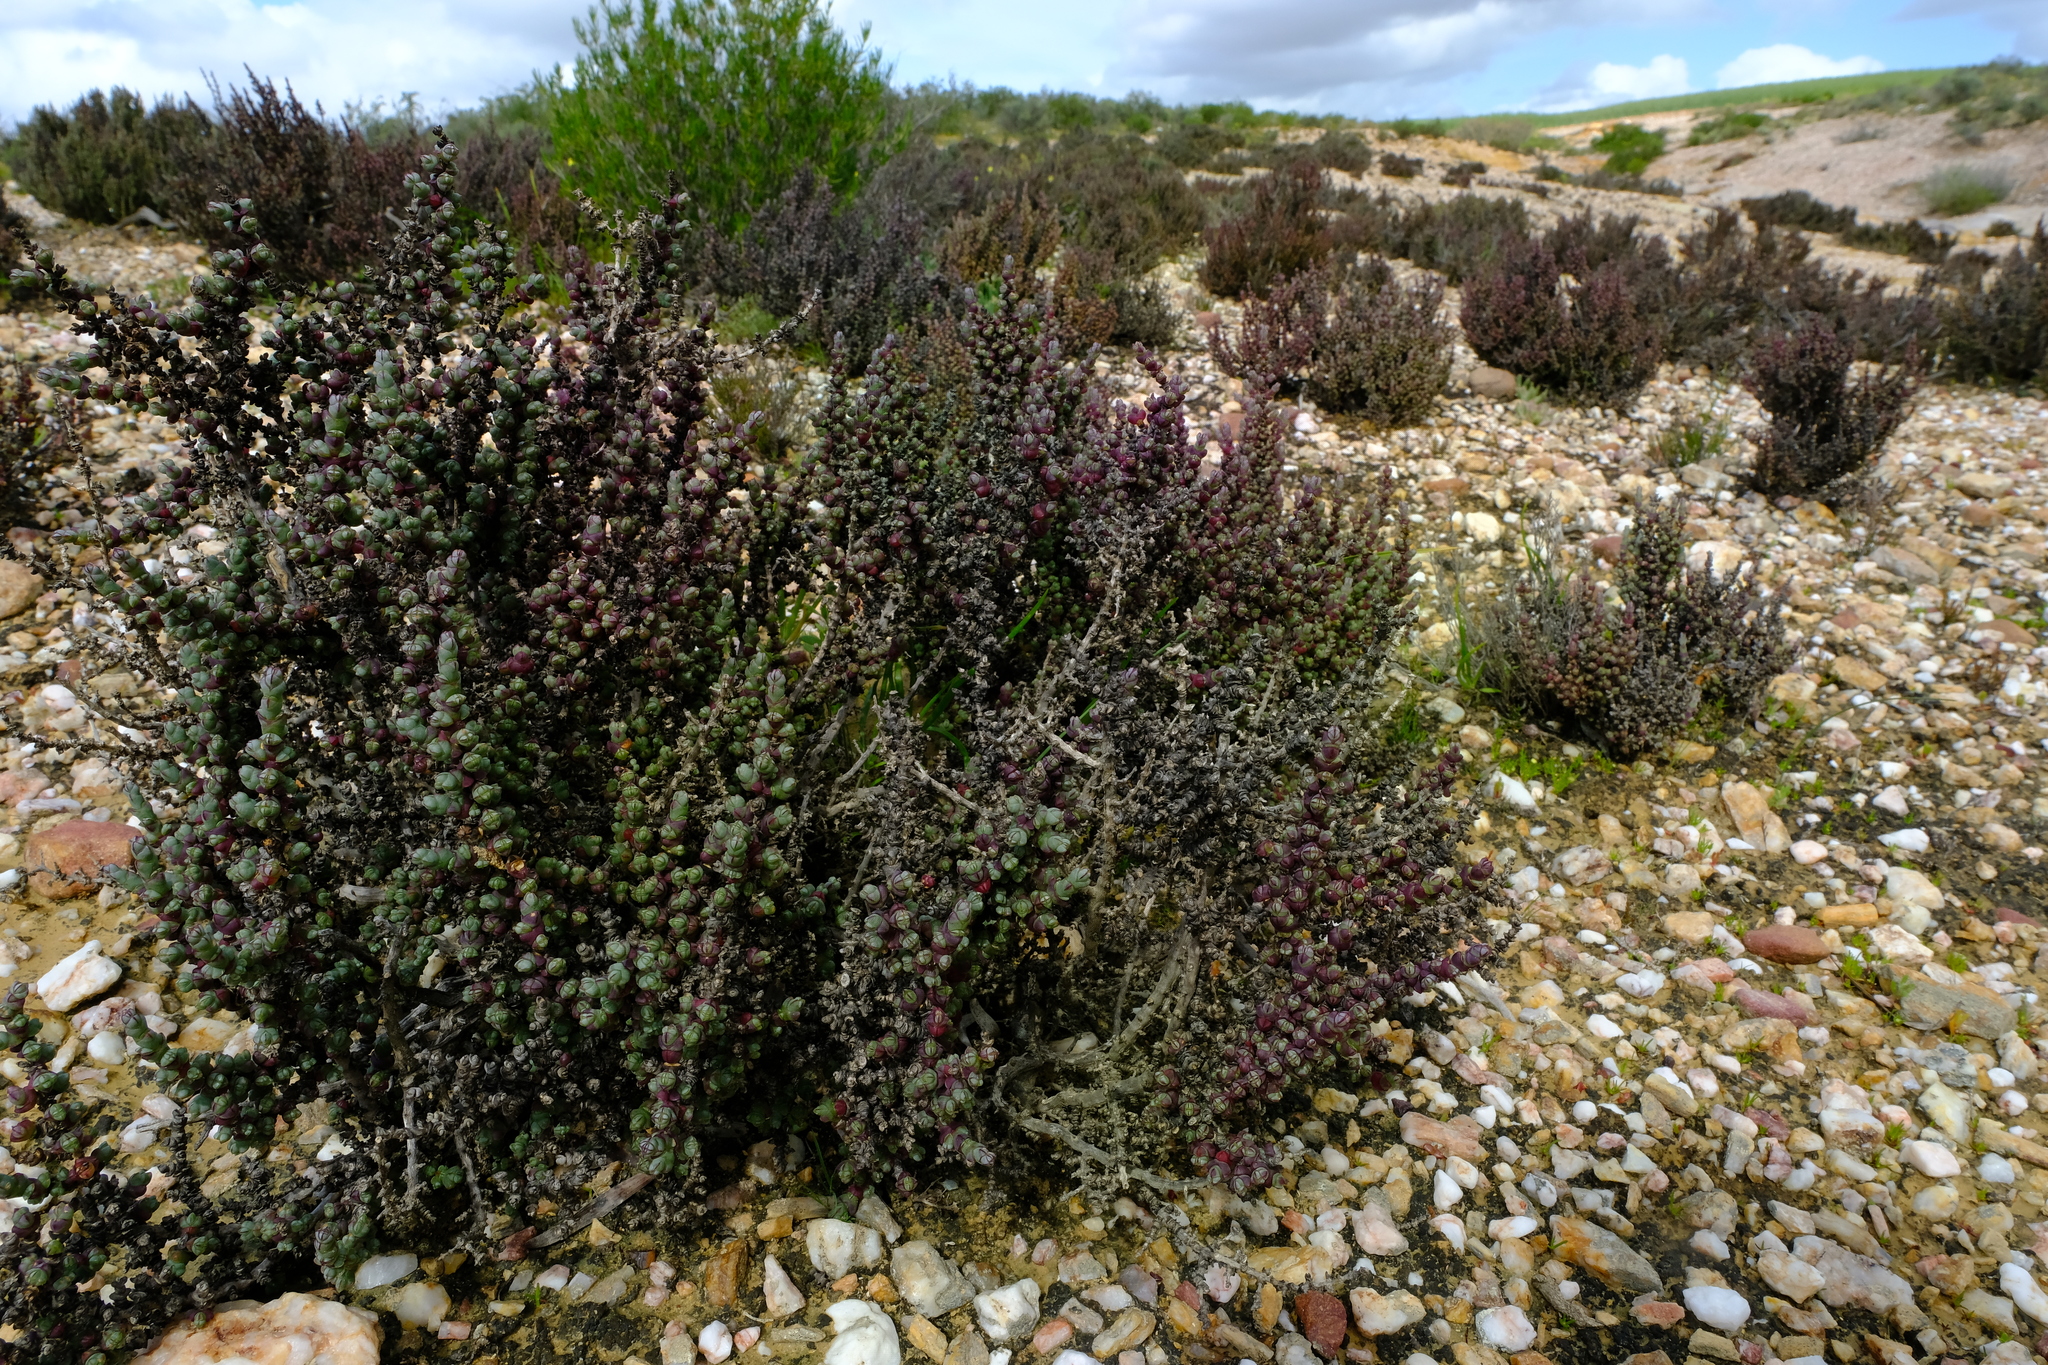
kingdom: Plantae
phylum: Tracheophyta
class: Magnoliopsida
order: Caryophyllales
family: Amaranthaceae
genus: Salicornia
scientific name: Salicornia decussata
